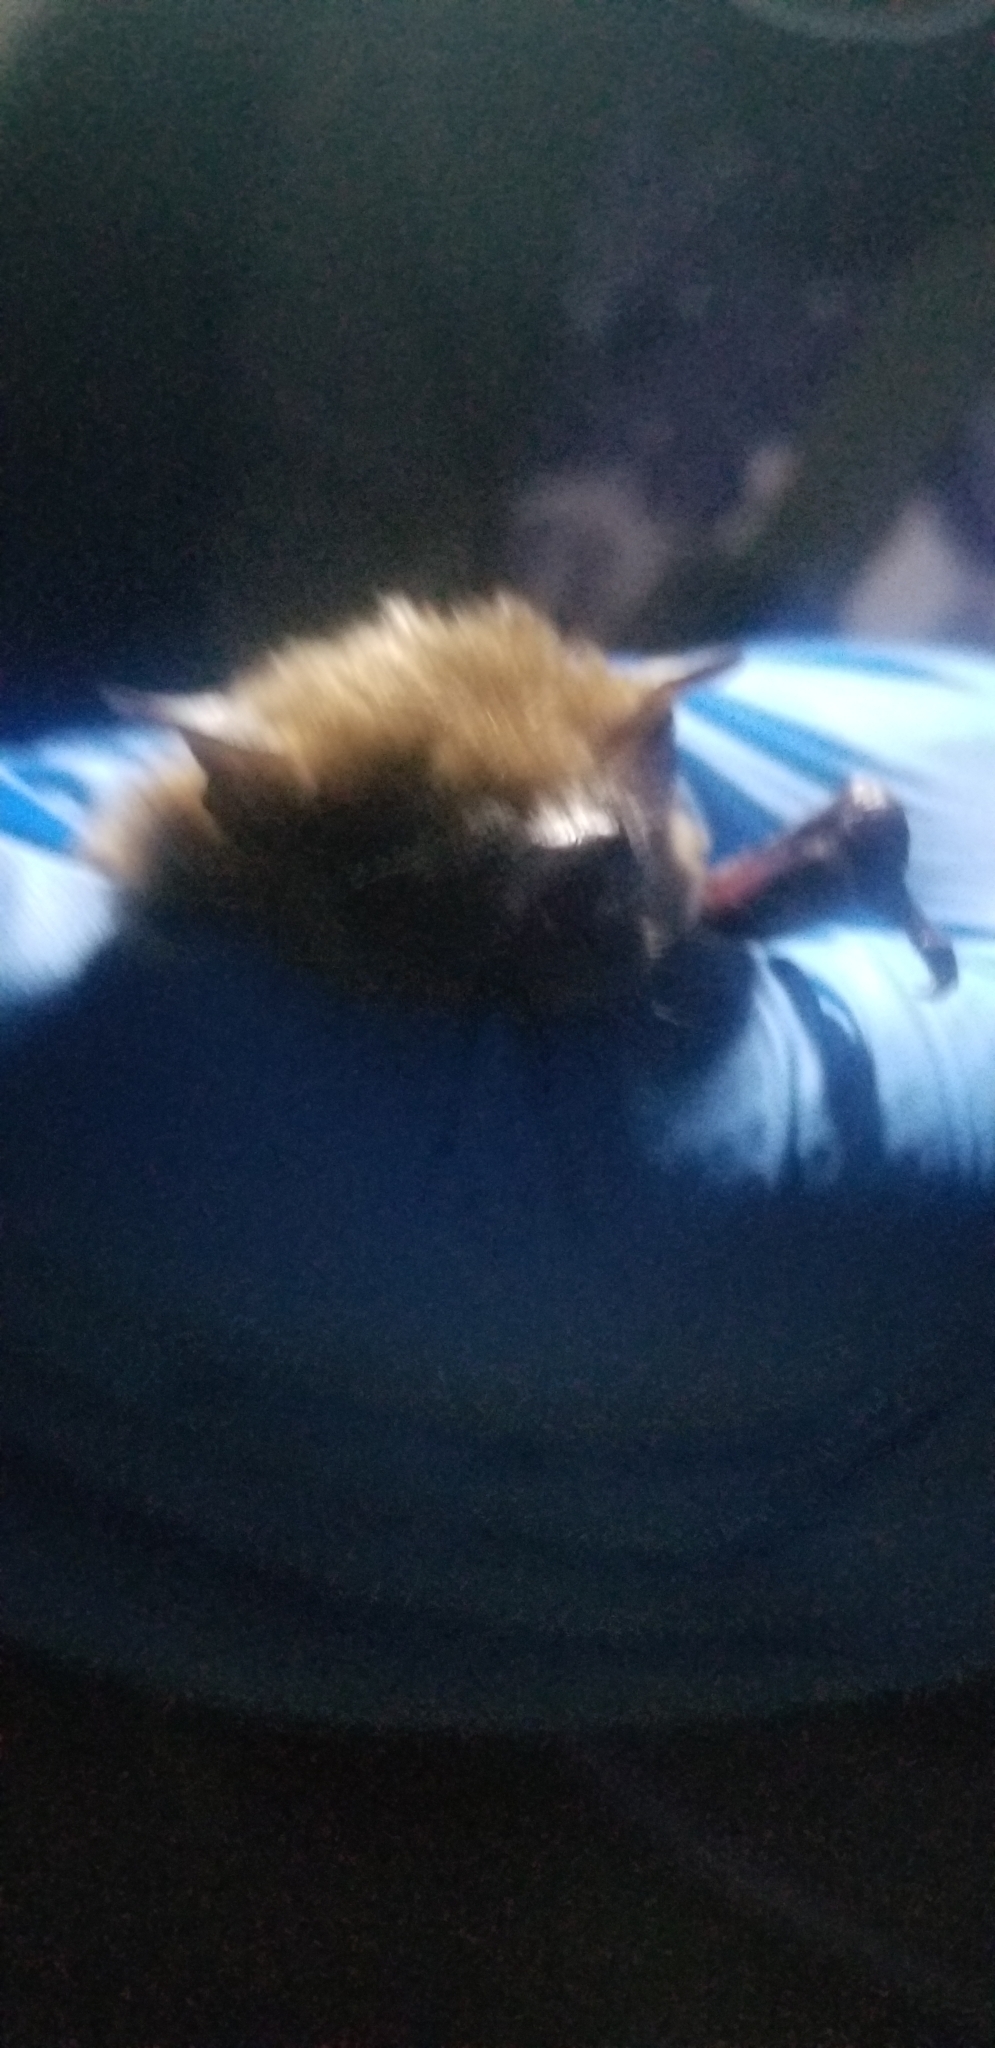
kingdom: Animalia
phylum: Chordata
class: Mammalia
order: Chiroptera
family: Vespertilionidae
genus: Eptesicus
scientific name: Eptesicus fuscus
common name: Big brown bat
